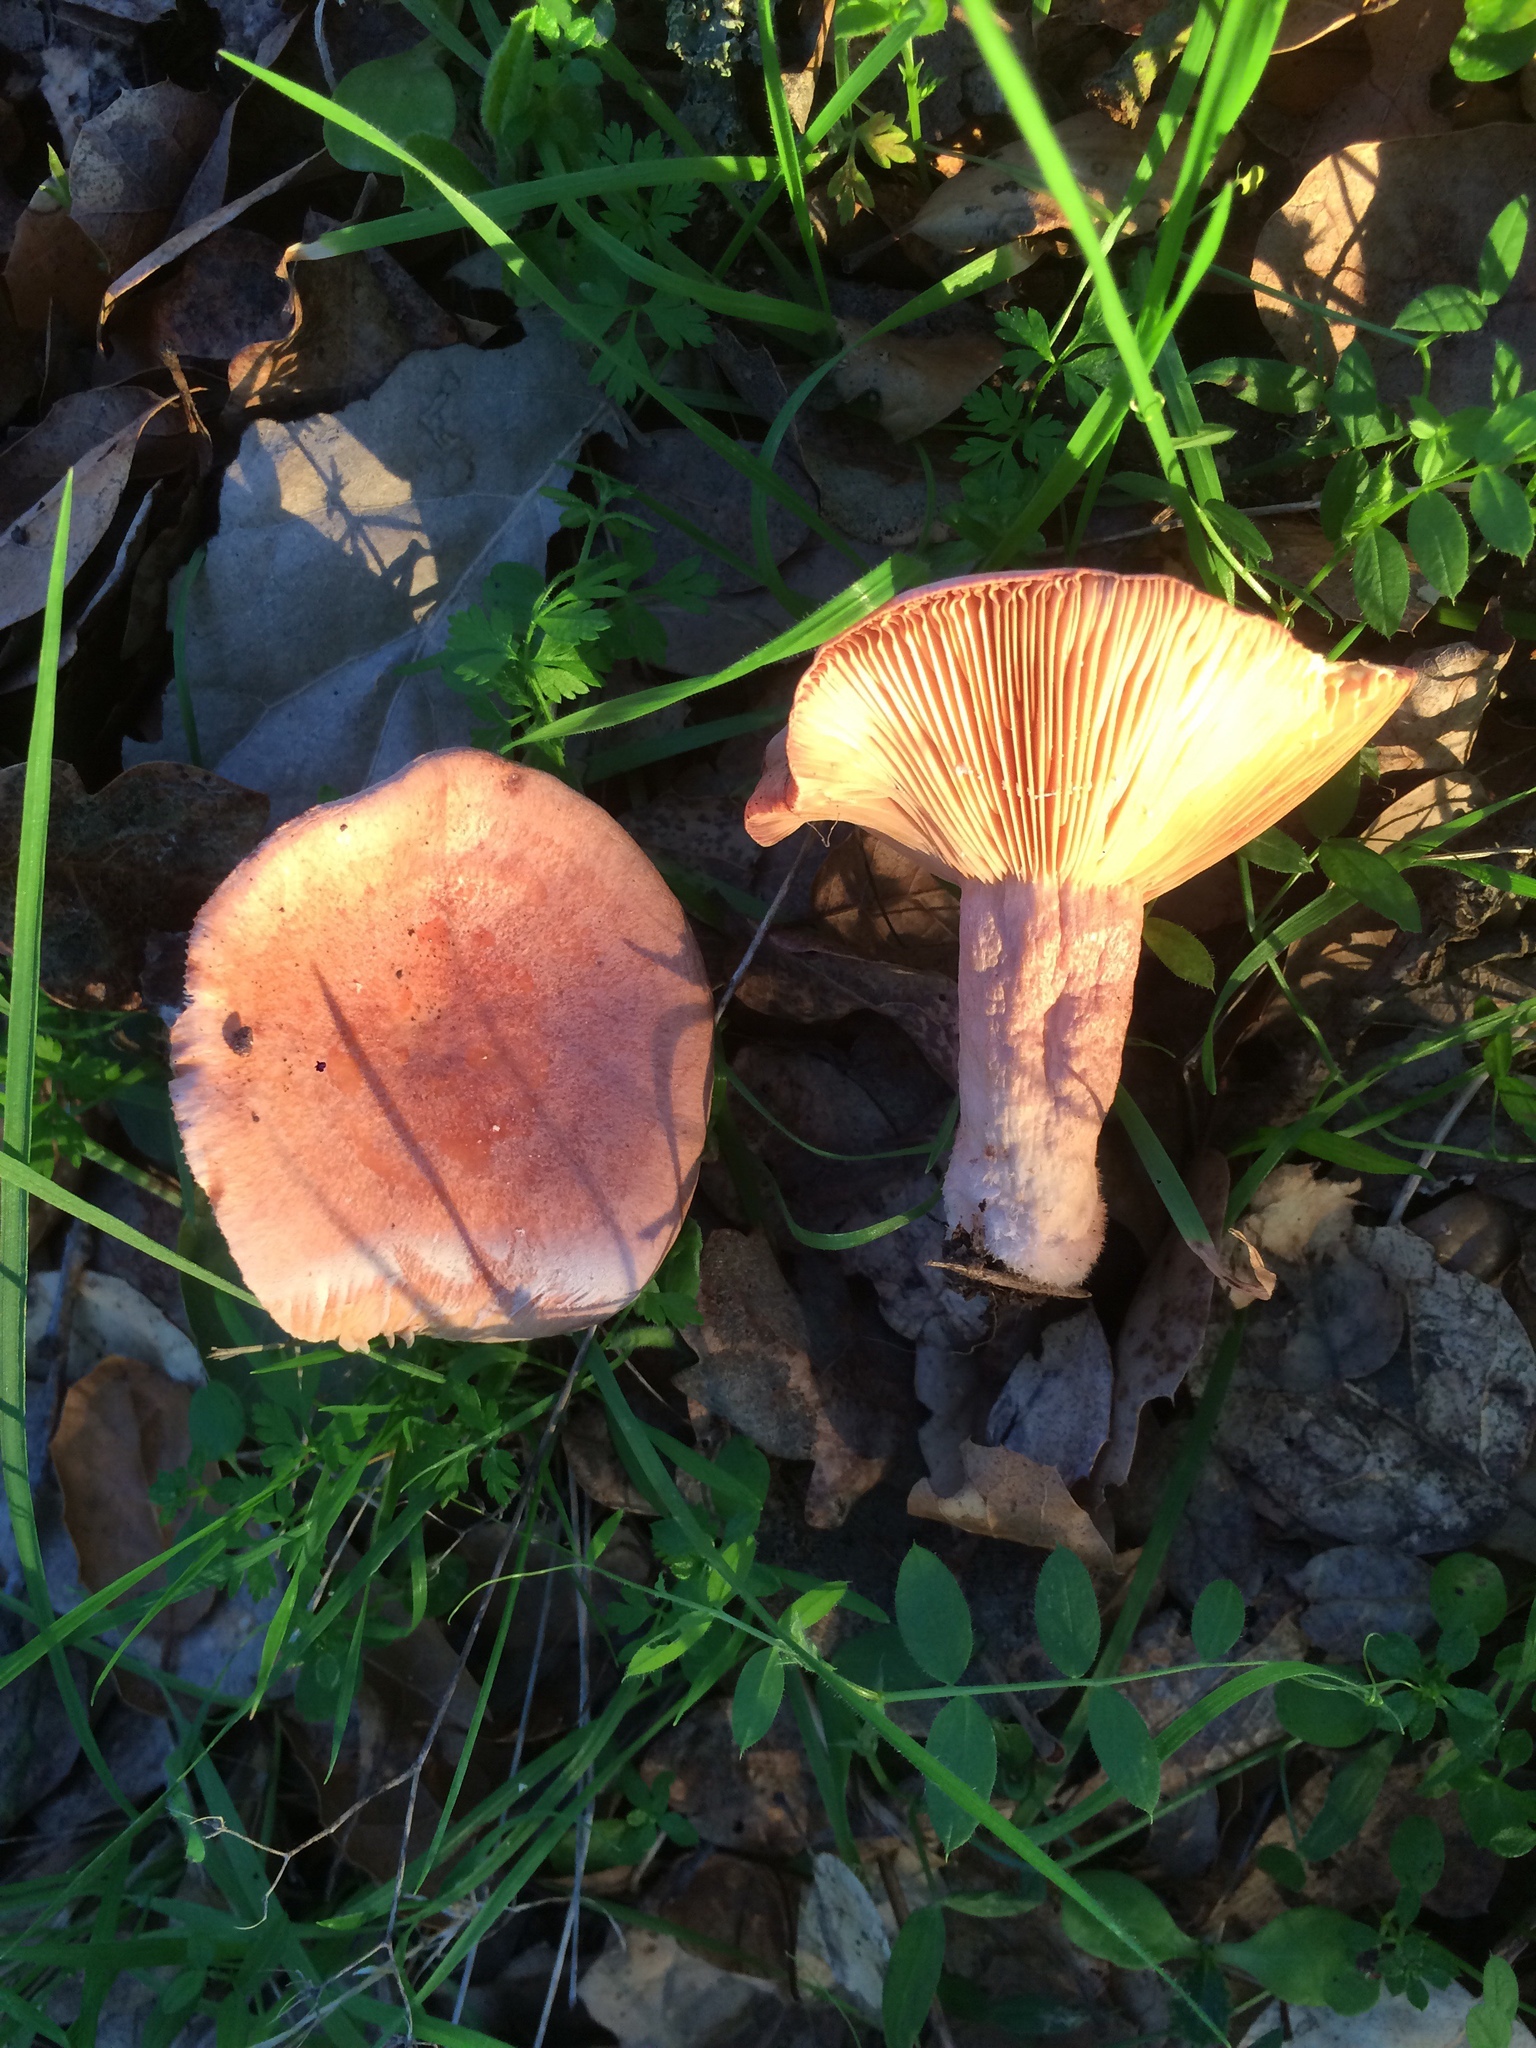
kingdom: Fungi
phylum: Basidiomycota
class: Agaricomycetes
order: Russulales
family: Russulaceae
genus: Lactarius
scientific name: Lactarius xanthogalactus
